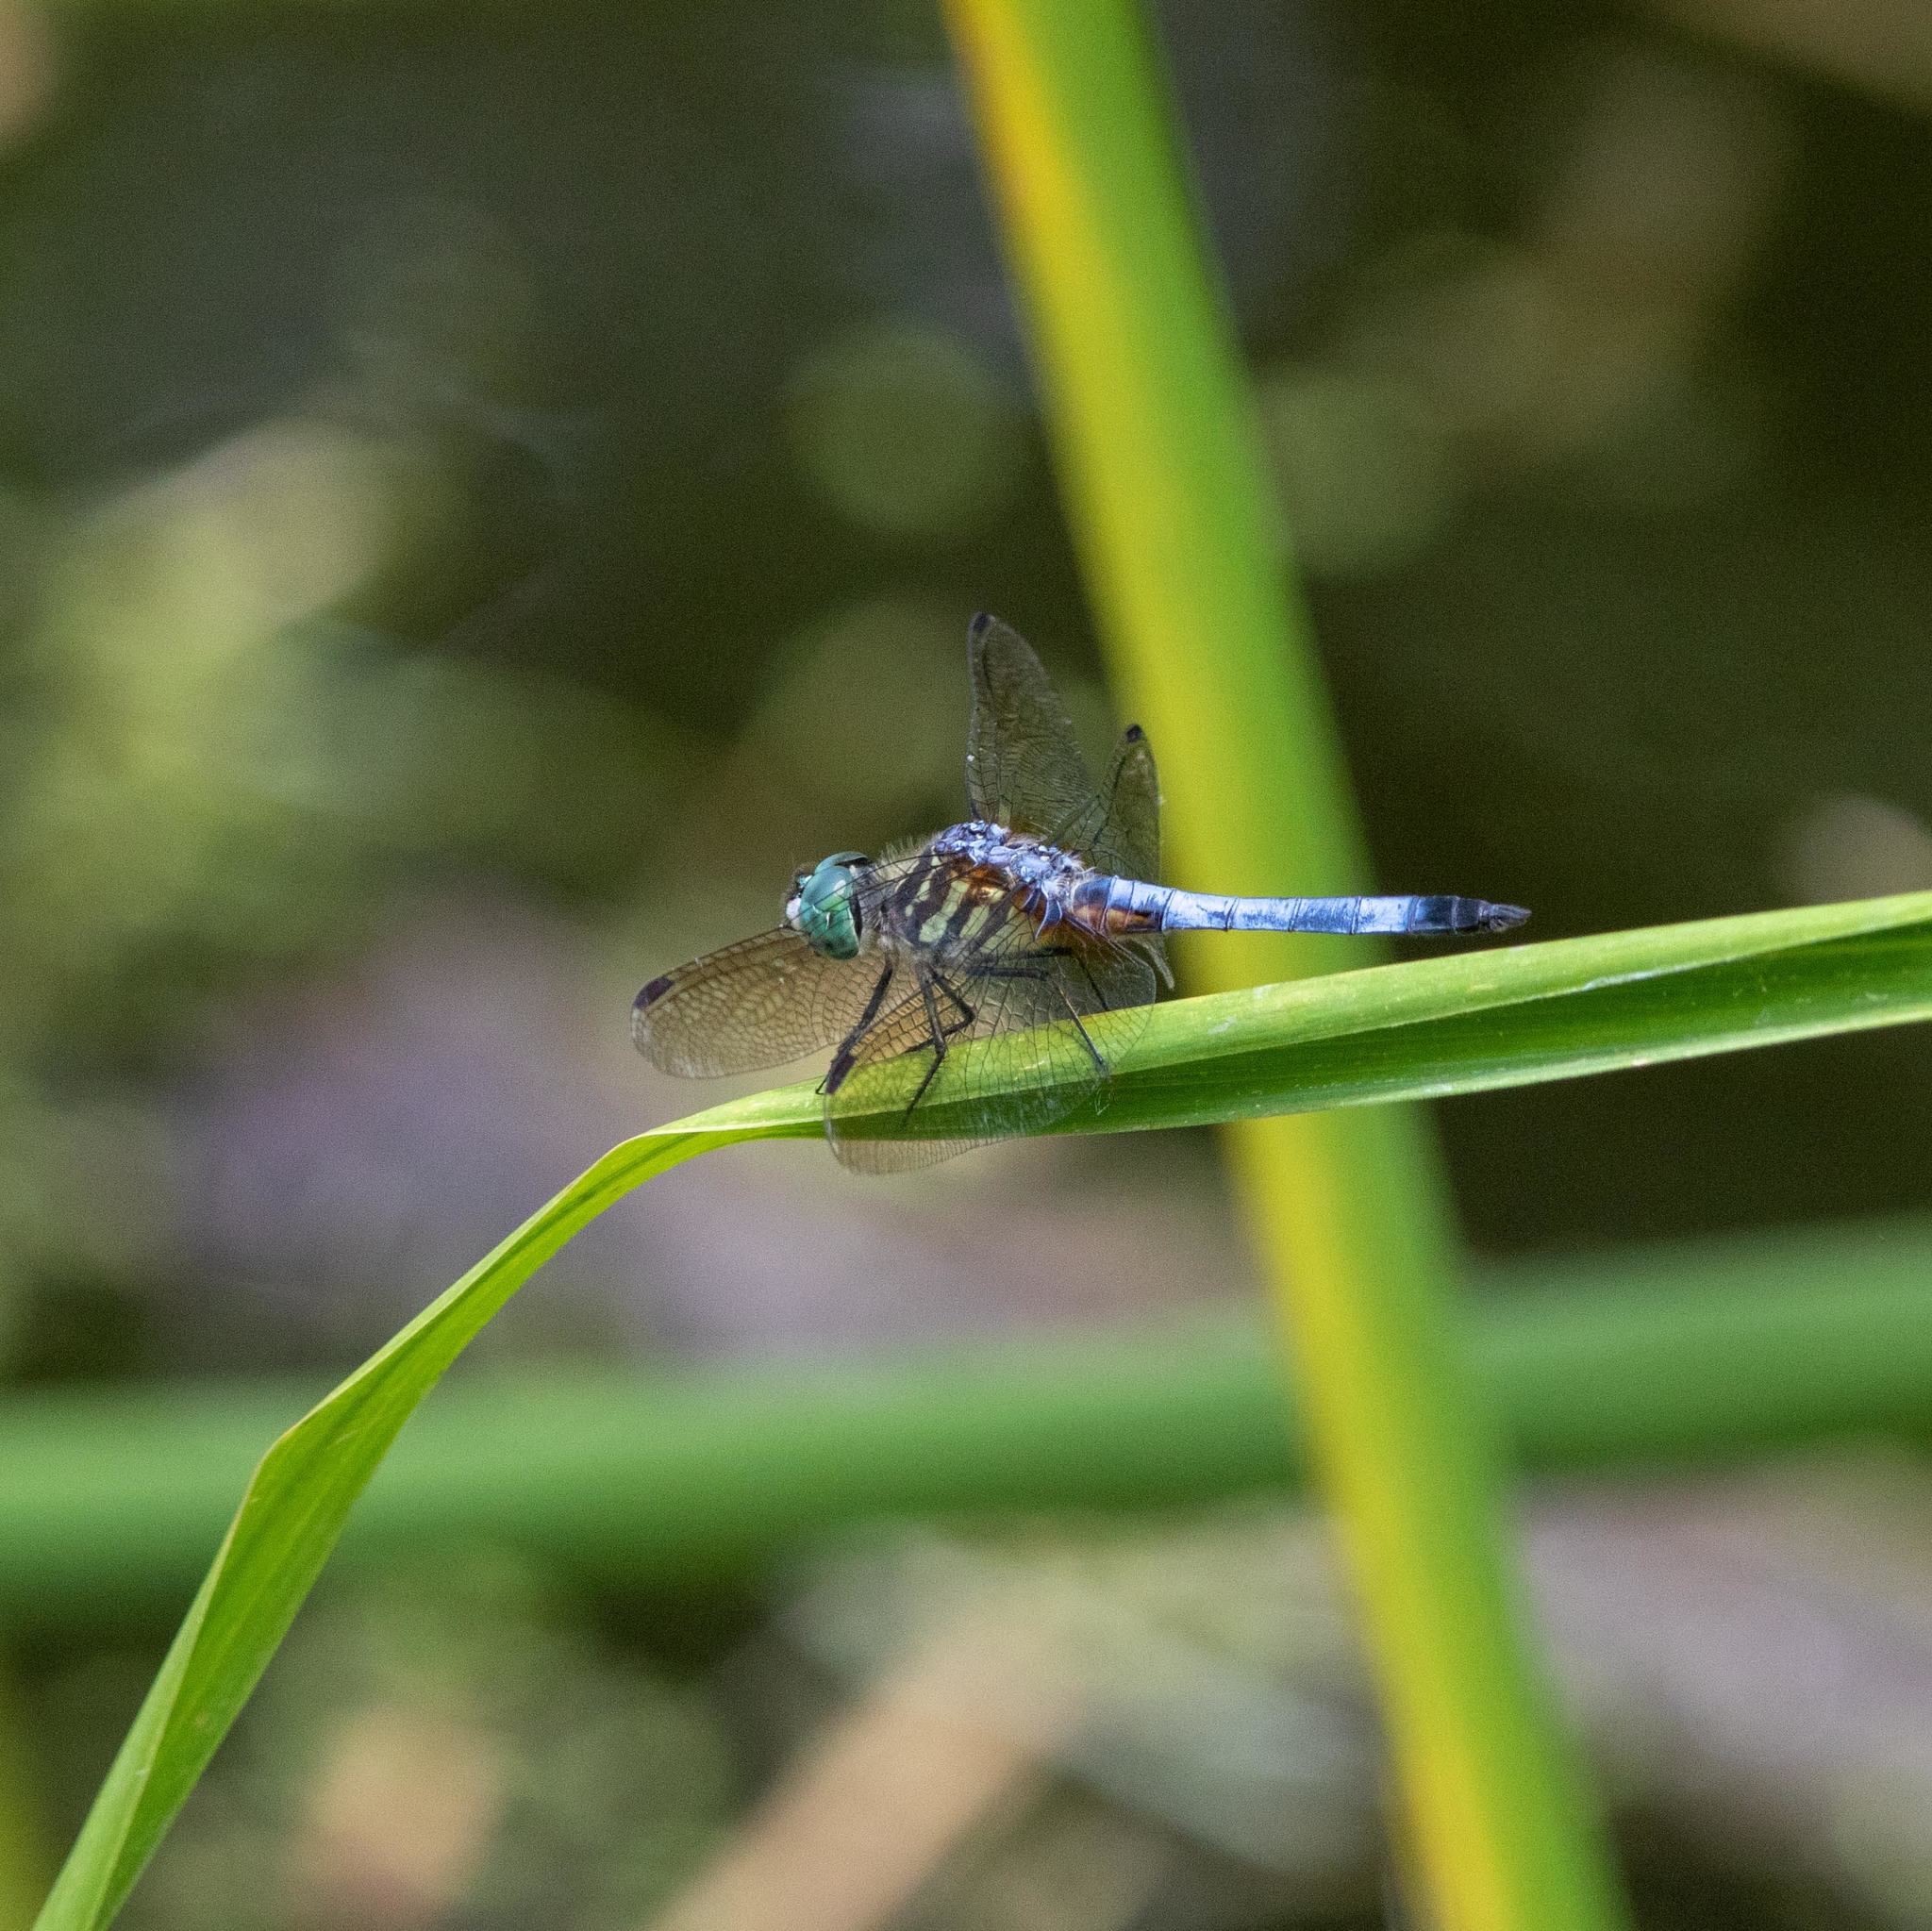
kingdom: Animalia
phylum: Arthropoda
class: Insecta
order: Odonata
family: Libellulidae
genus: Pachydiplax
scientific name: Pachydiplax longipennis
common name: Blue dasher
